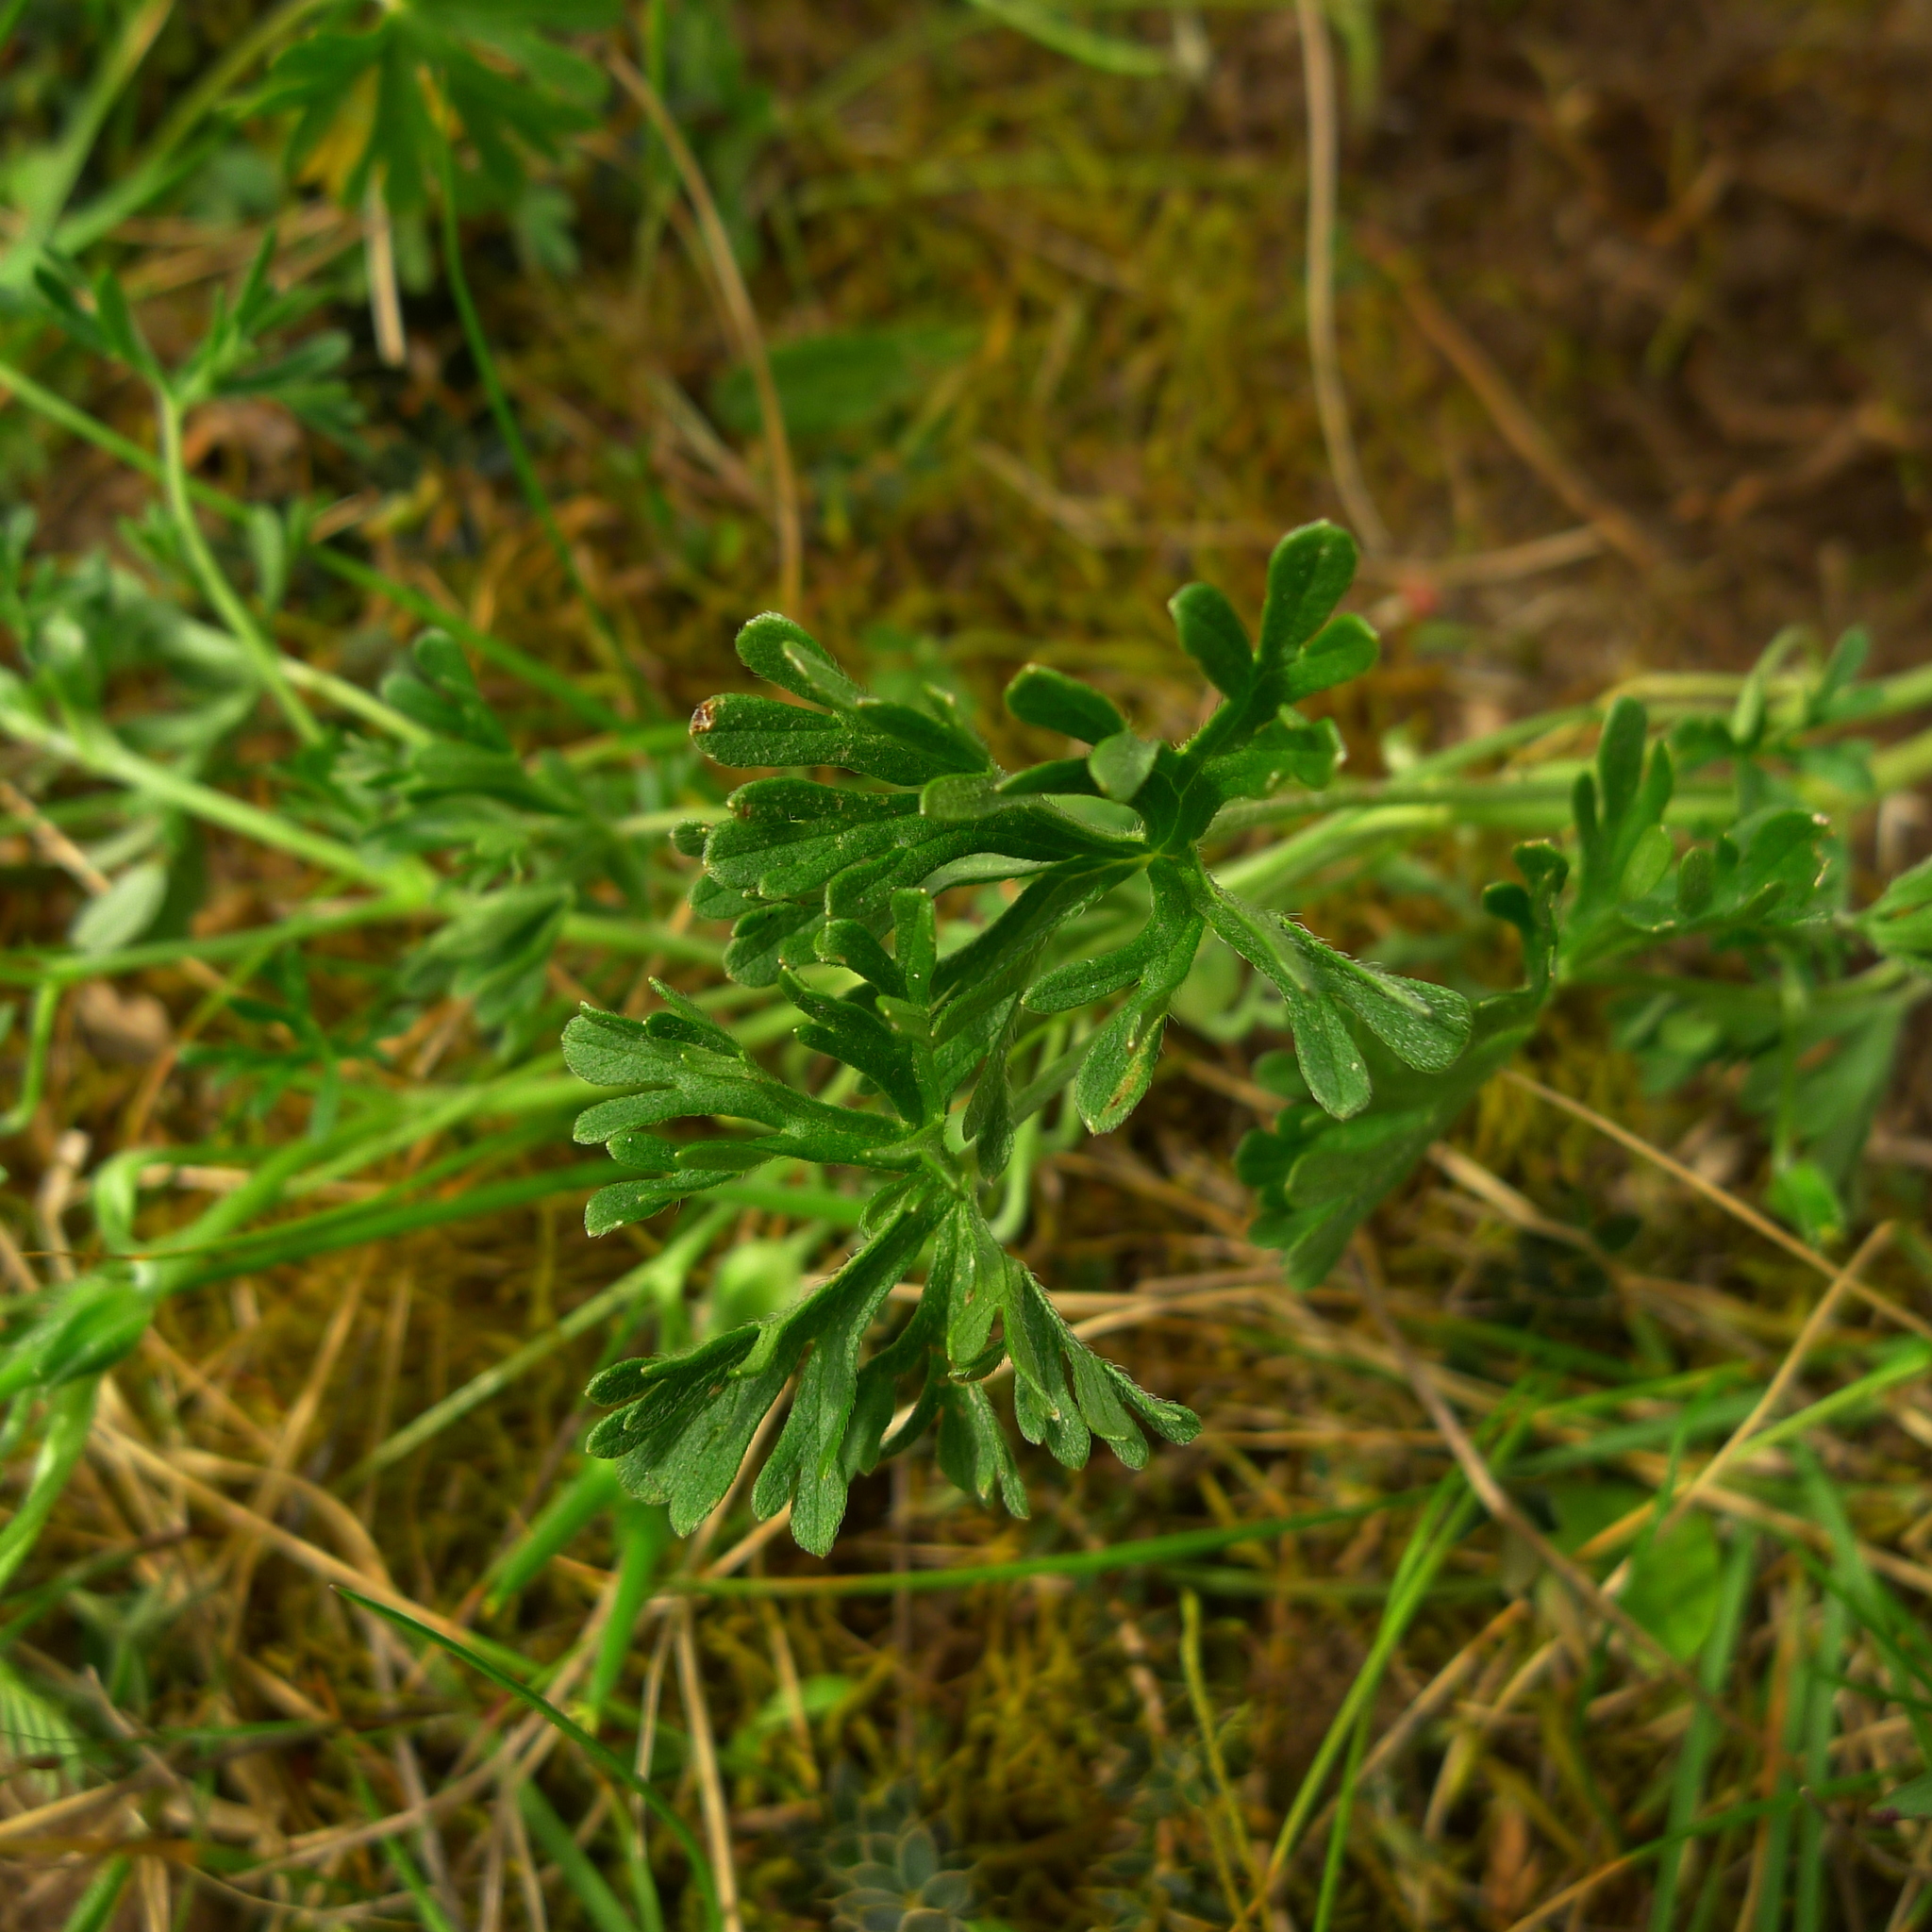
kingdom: Plantae
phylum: Tracheophyta
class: Magnoliopsida
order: Geraniales
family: Geraniaceae
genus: Geranium
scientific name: Geranium retrorsum
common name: New zealand geranium
